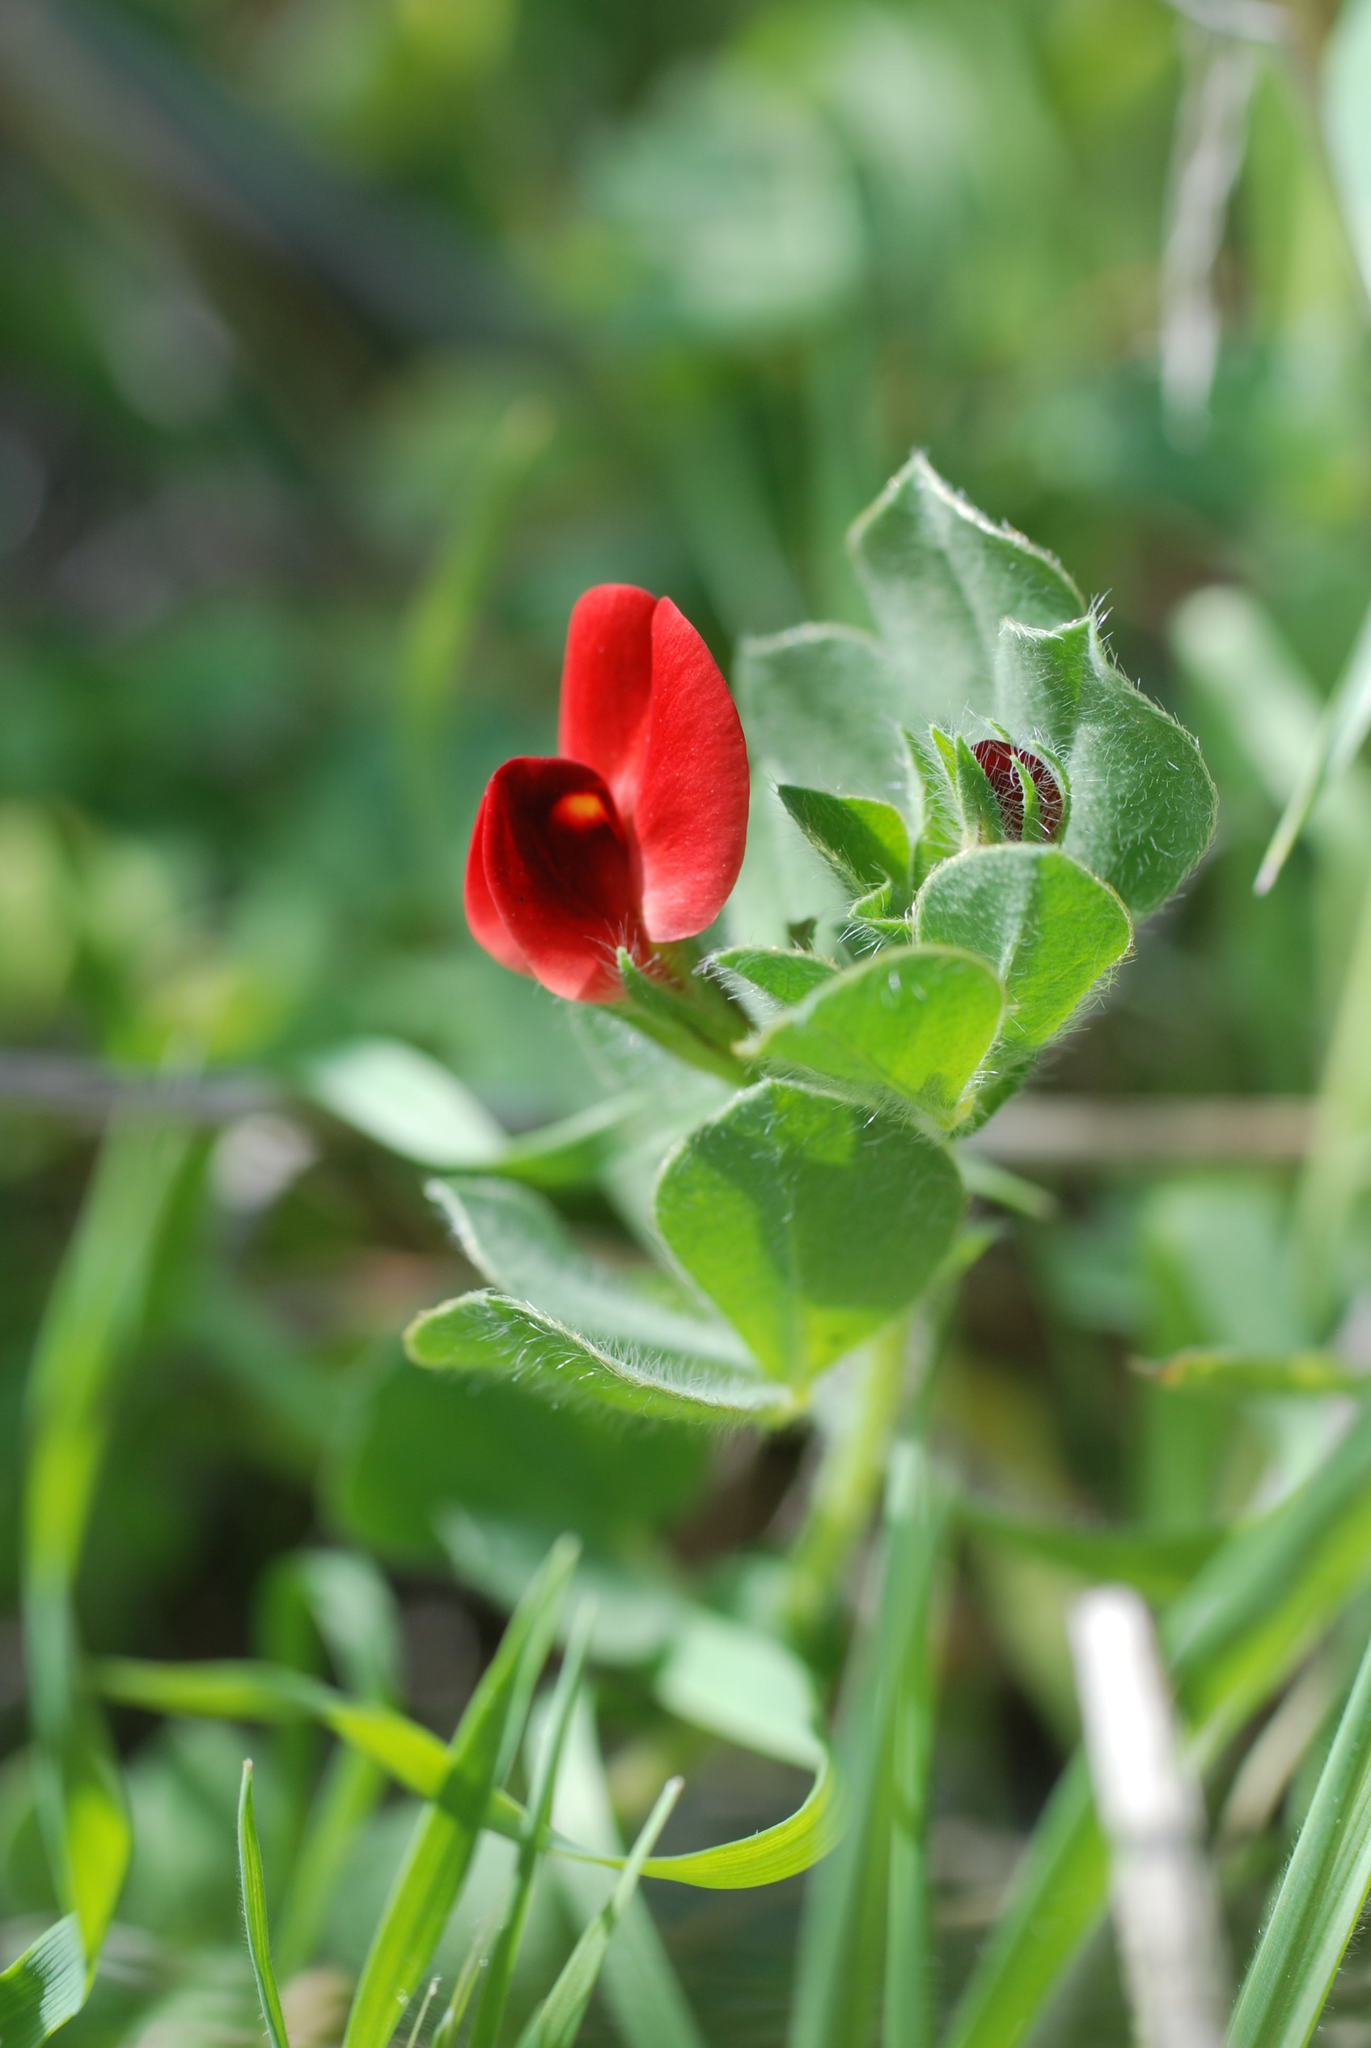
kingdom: Plantae
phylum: Tracheophyta
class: Magnoliopsida
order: Fabales
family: Fabaceae
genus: Lotus
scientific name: Lotus tetragonolobus
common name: Asparagus-pea
